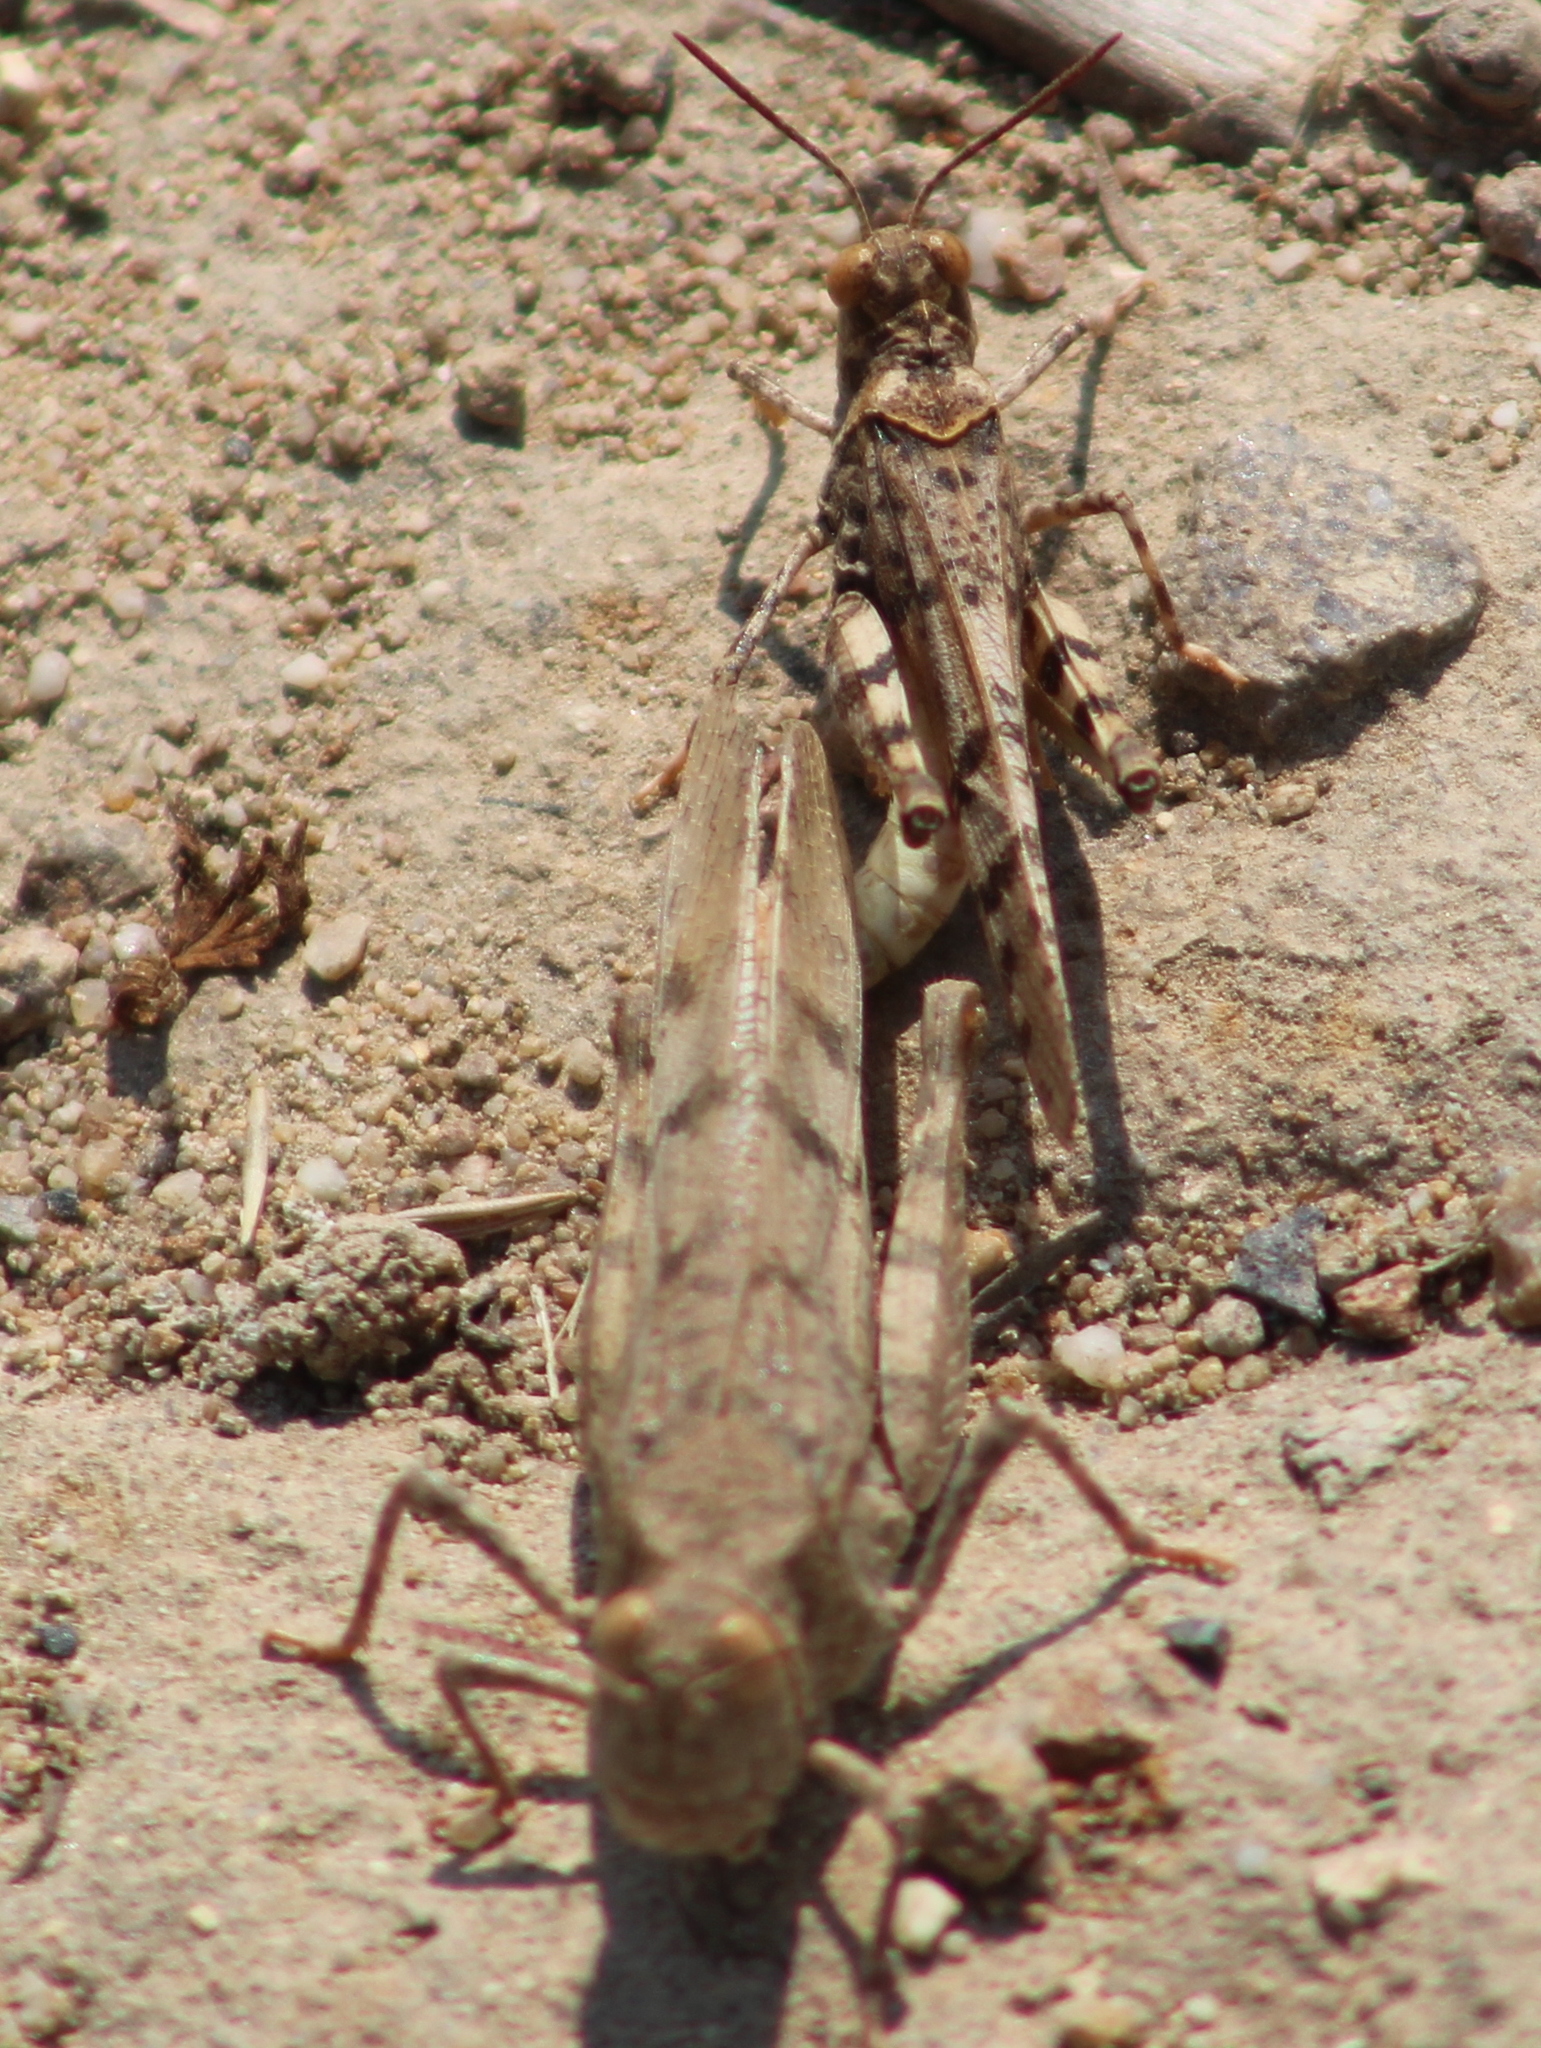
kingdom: Animalia
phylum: Arthropoda
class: Insecta
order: Orthoptera
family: Acrididae
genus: Dissosteira
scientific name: Dissosteira pictipennis
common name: California rose-winged grasshopper
